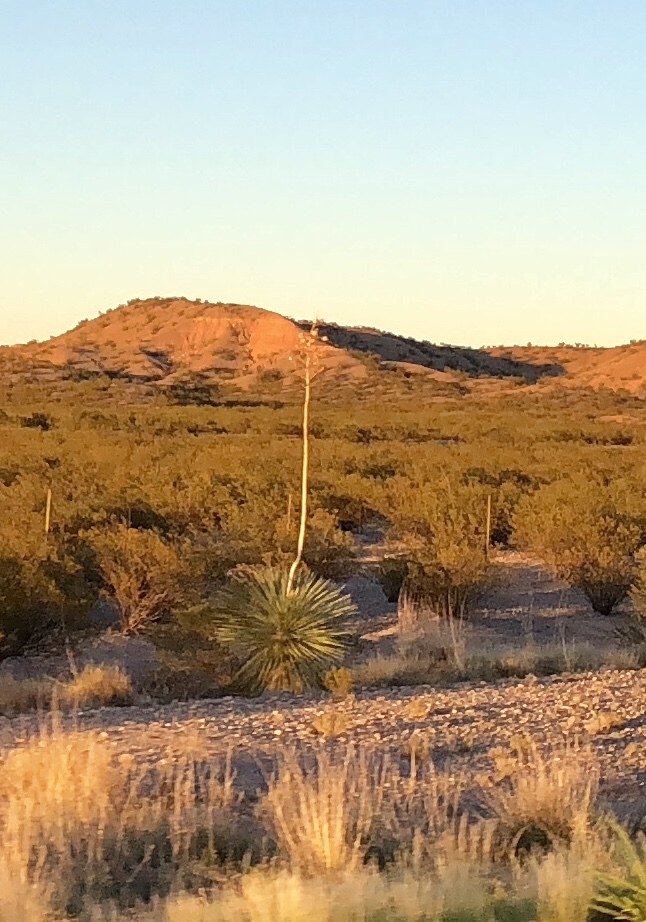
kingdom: Plantae
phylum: Tracheophyta
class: Liliopsida
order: Asparagales
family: Asparagaceae
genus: Yucca
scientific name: Yucca elata
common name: Palmella
